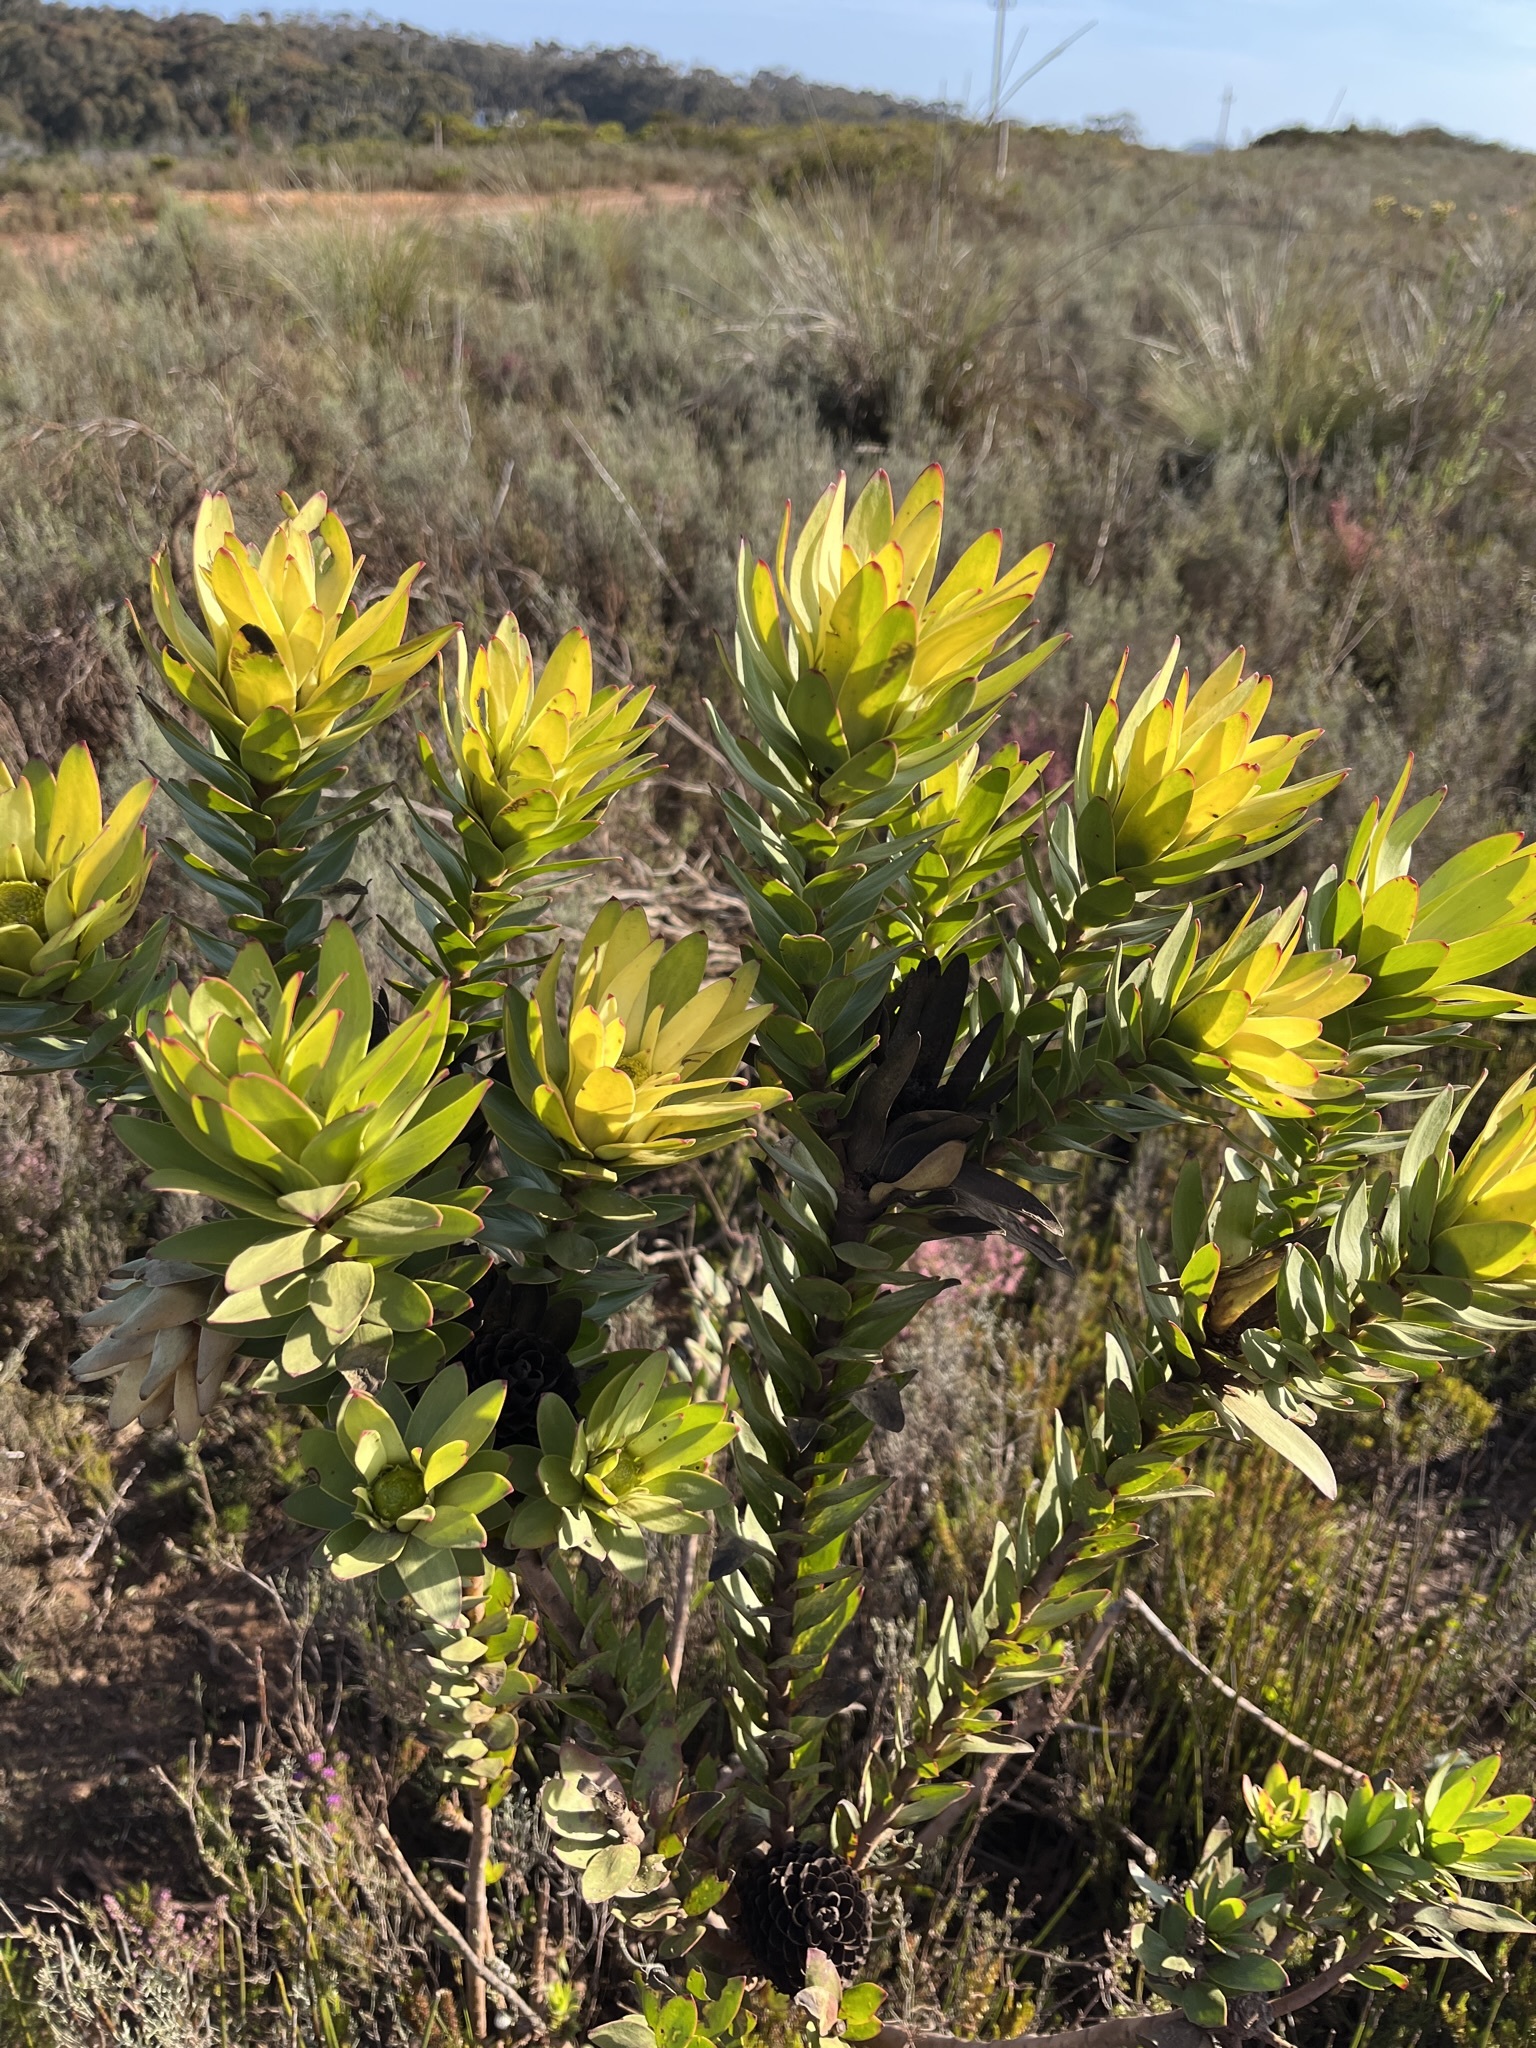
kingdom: Plantae
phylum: Tracheophyta
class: Magnoliopsida
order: Proteales
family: Proteaceae
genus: Leucadendron
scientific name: Leucadendron elimense
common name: Elim conebush
